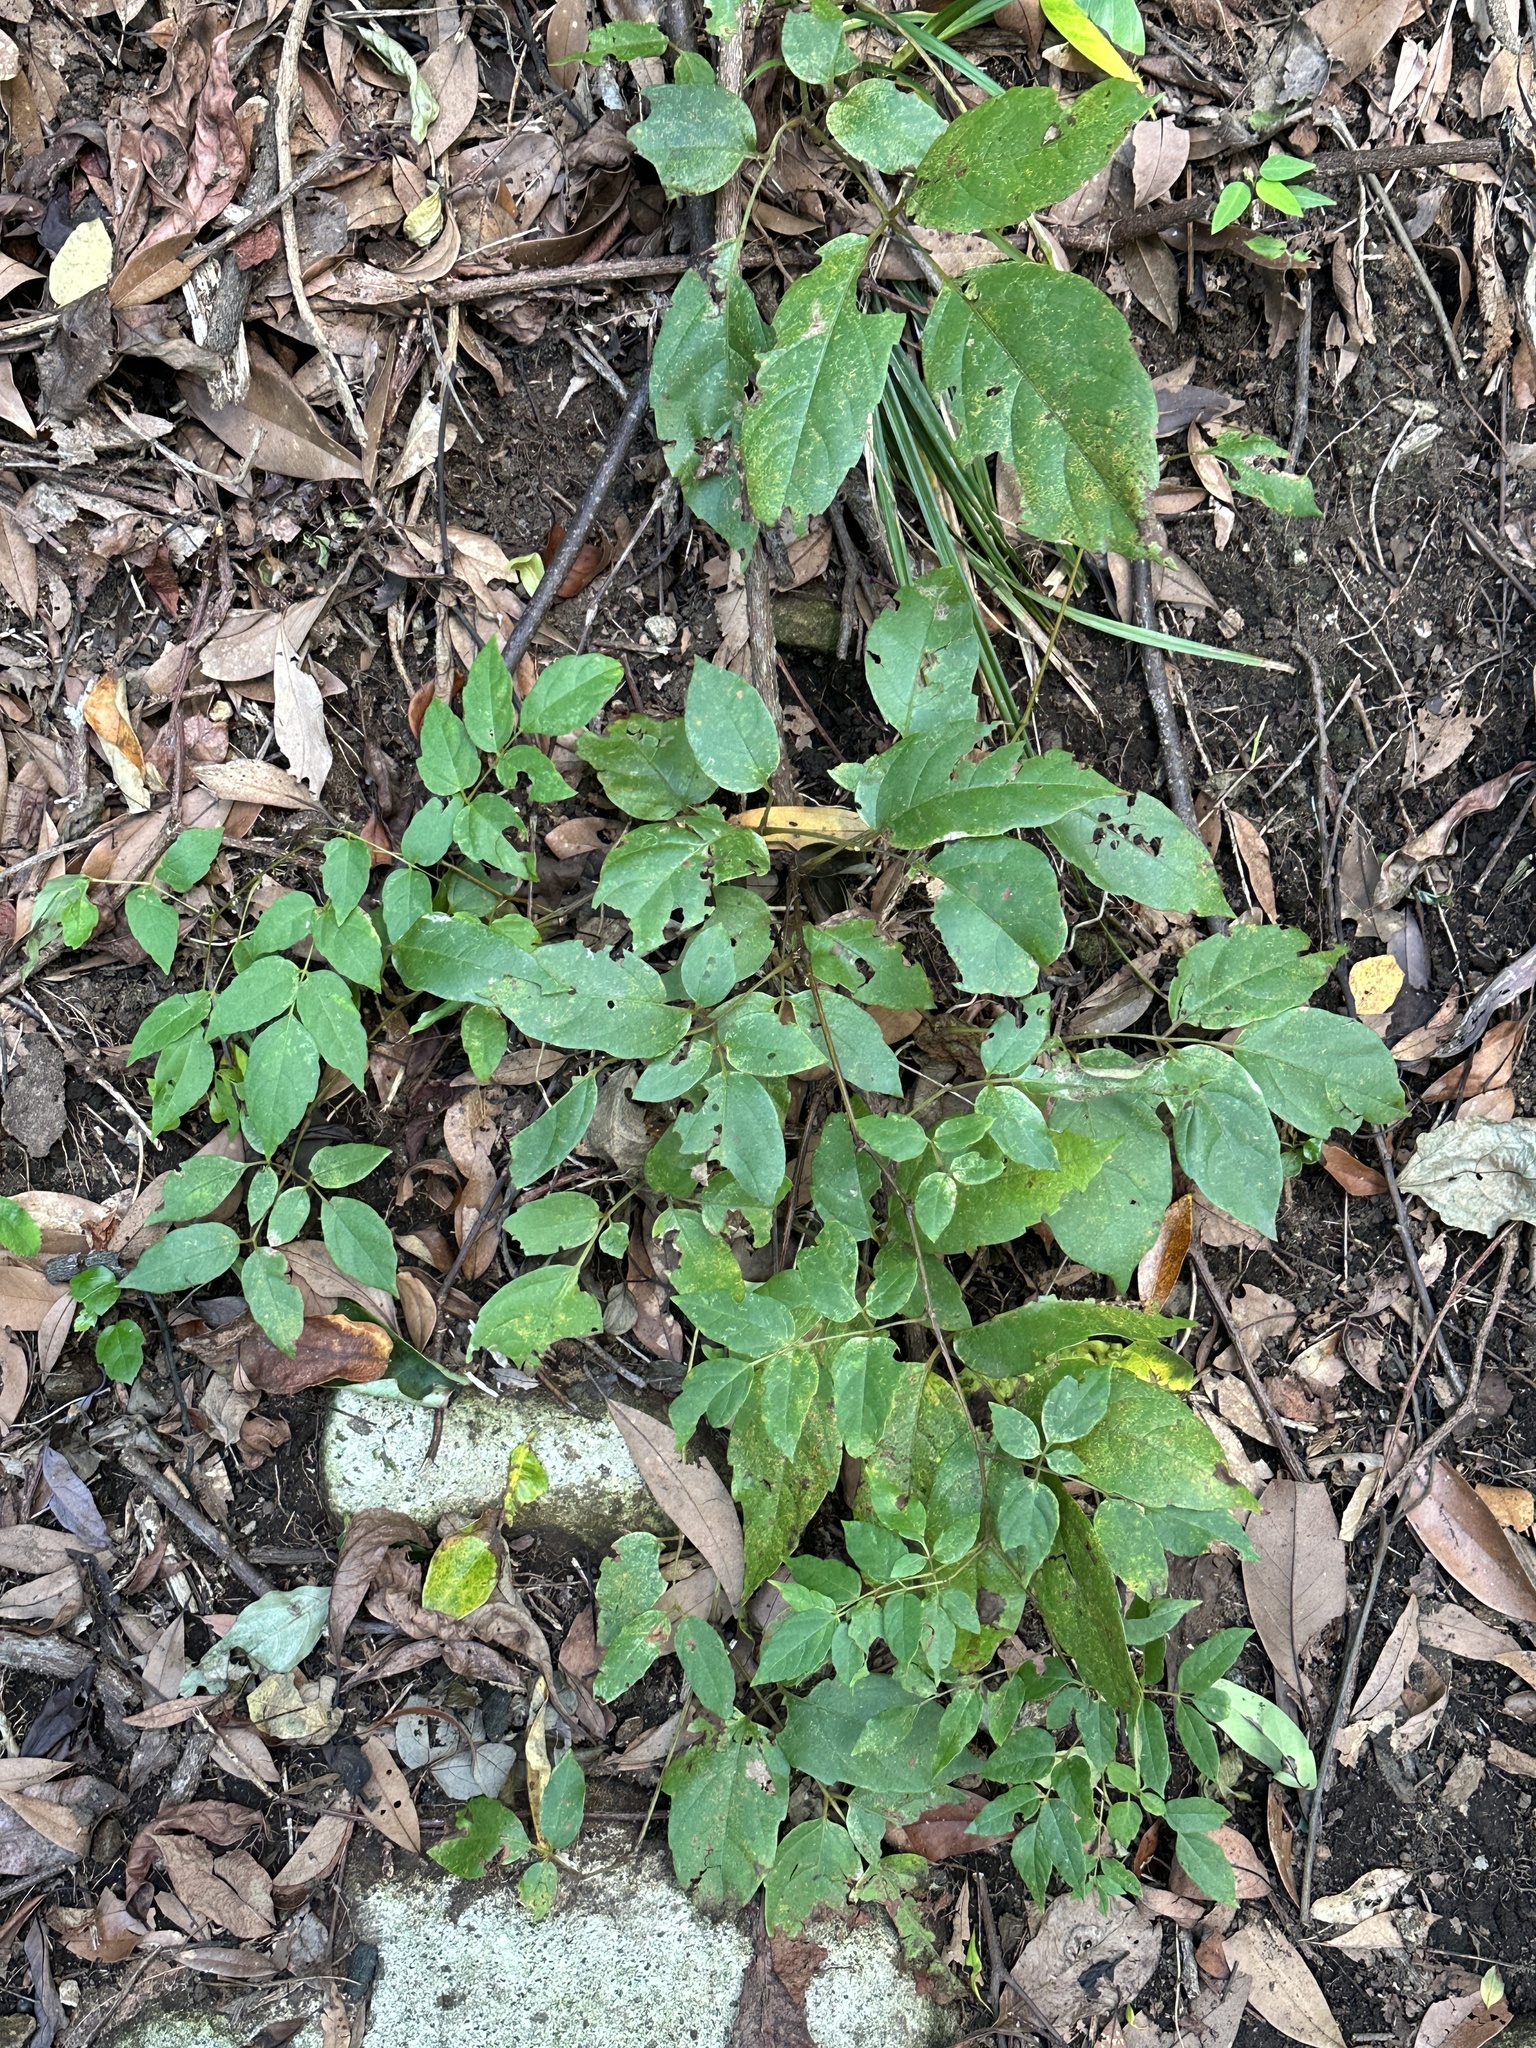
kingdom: Plantae
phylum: Tracheophyta
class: Magnoliopsida
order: Vitales
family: Vitaceae
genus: Nekemias
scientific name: Nekemias cantoniensis
